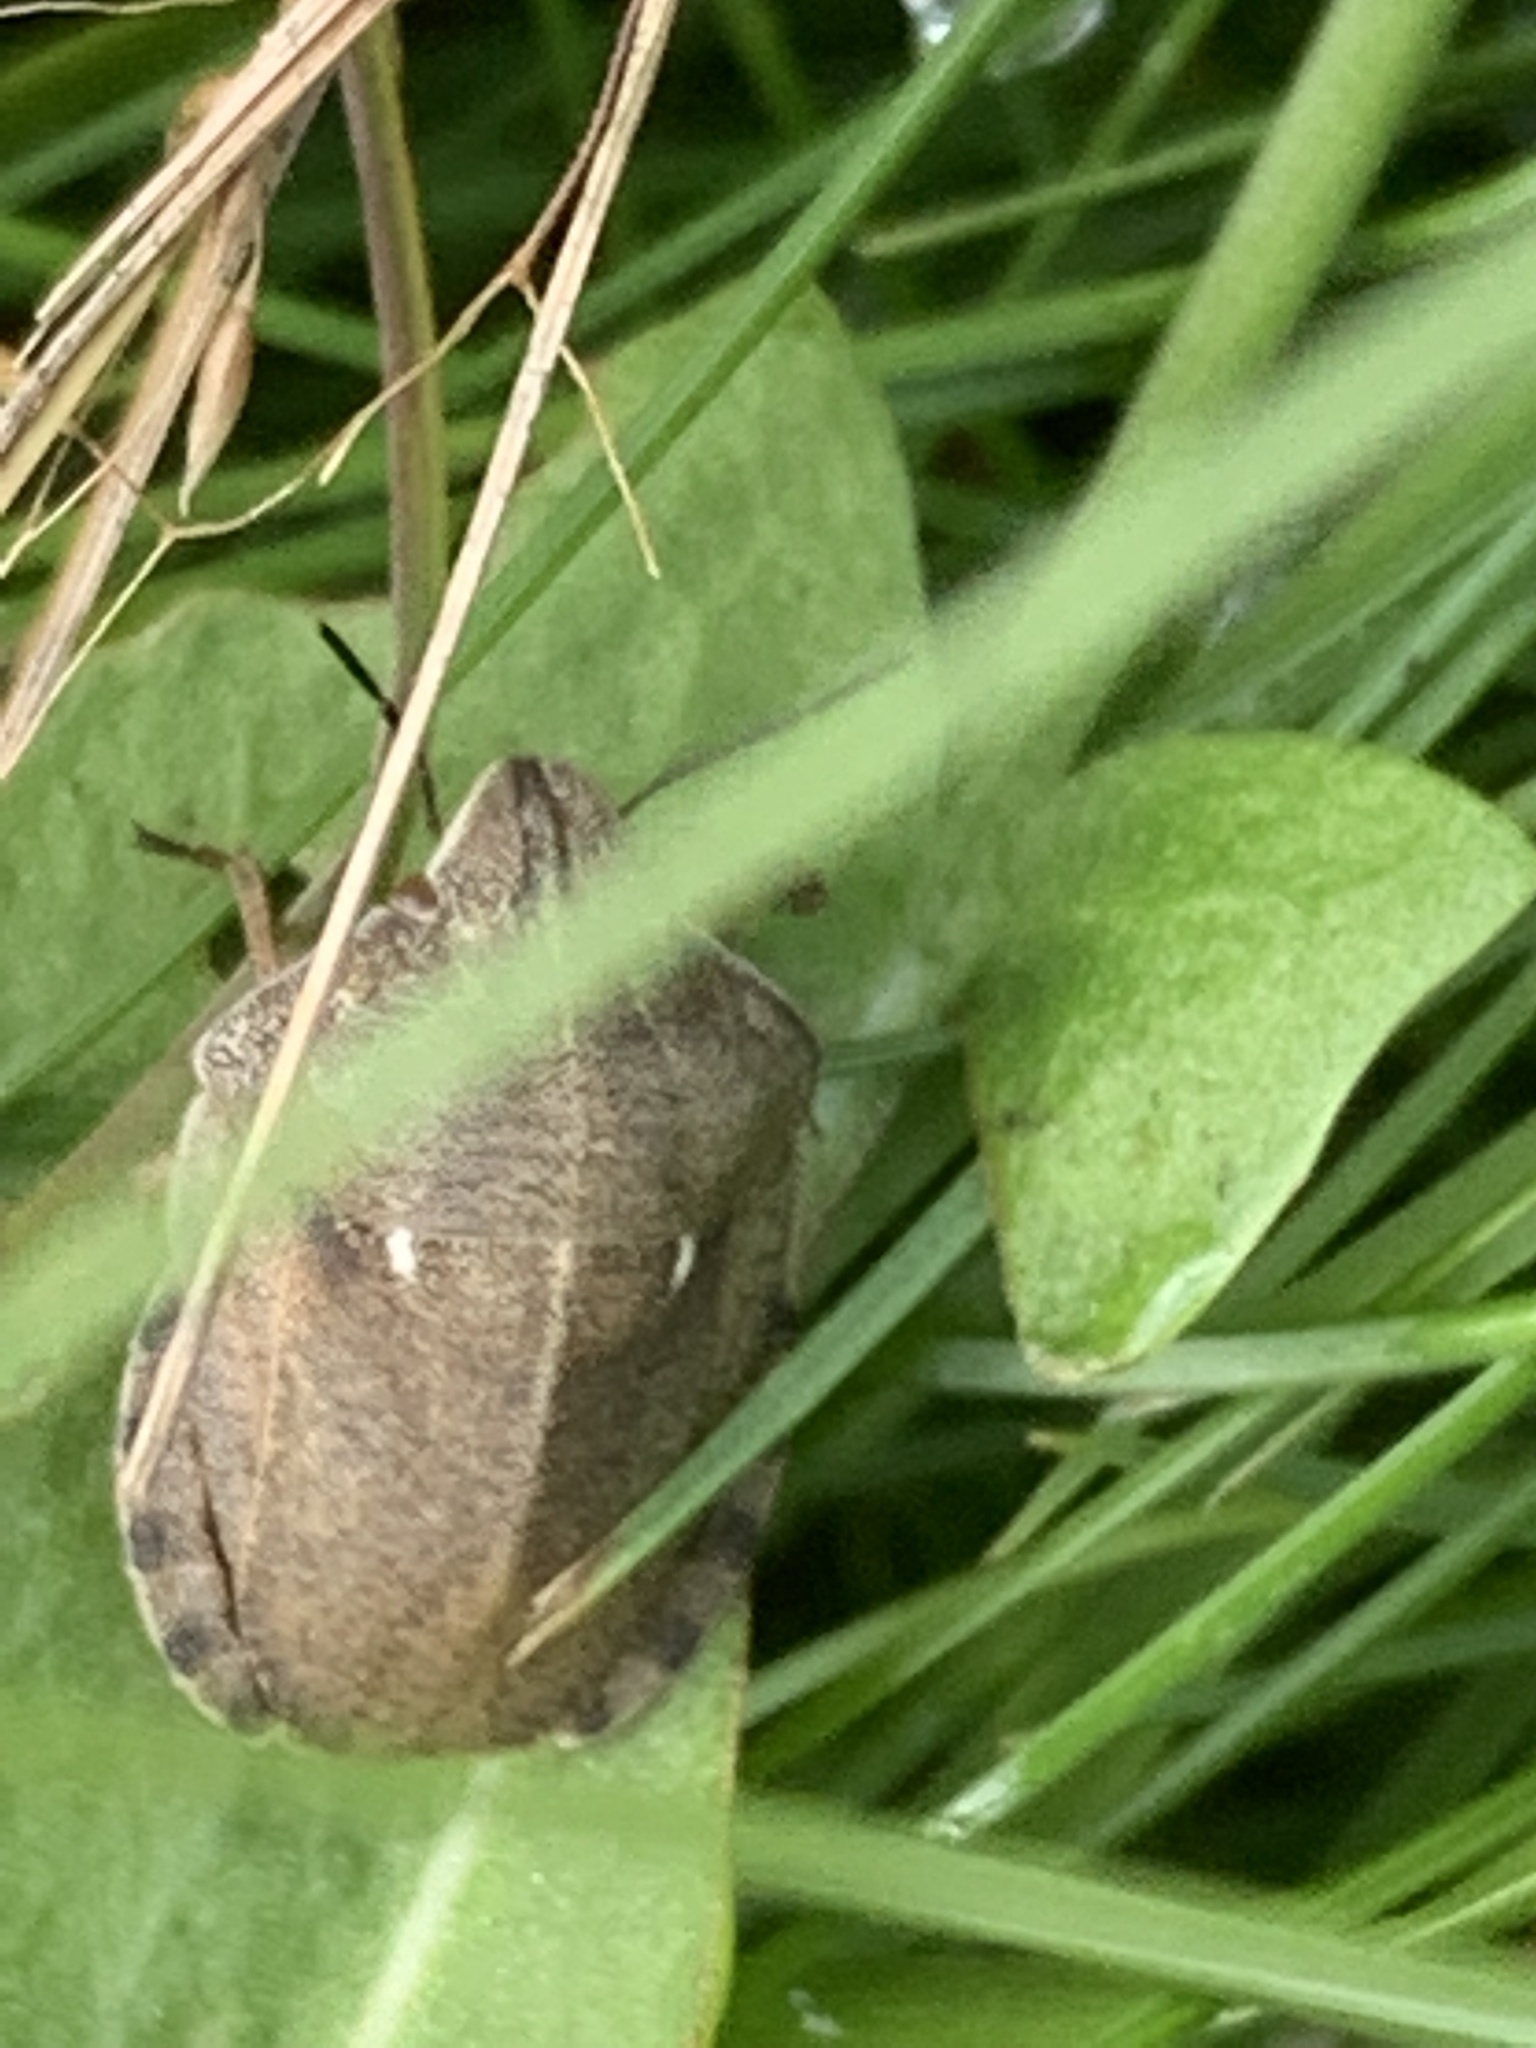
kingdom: Animalia
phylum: Arthropoda
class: Insecta
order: Hemiptera
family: Scutelleridae
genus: Eurygaster
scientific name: Eurygaster testudinaria
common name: Tortoise bug
